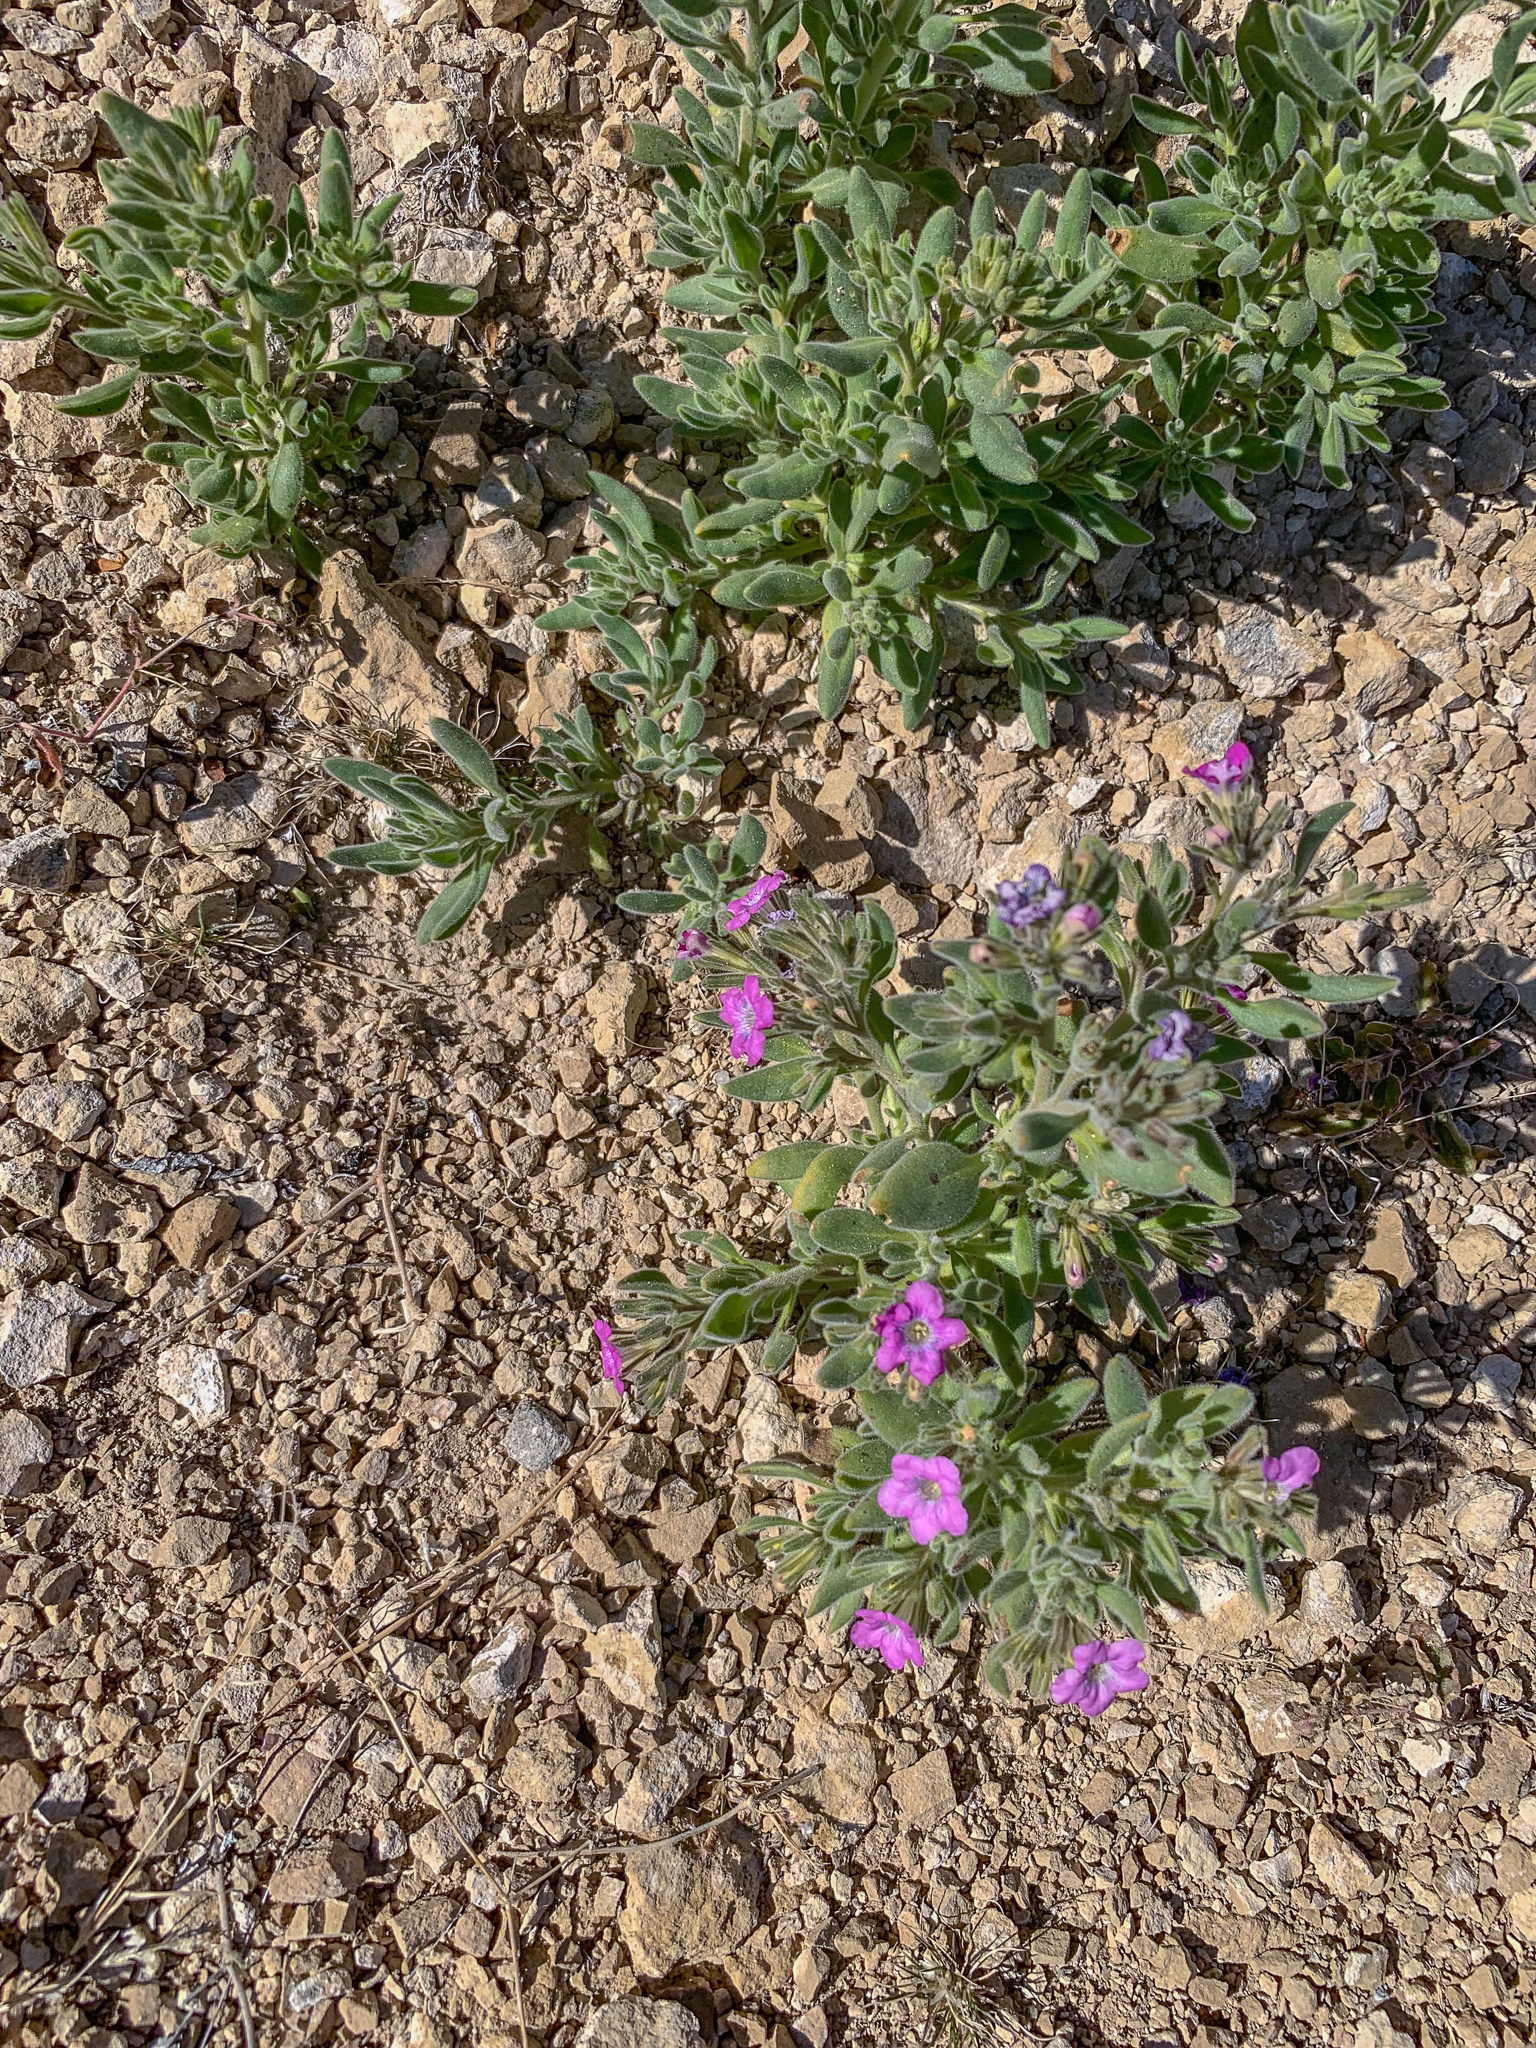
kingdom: Plantae
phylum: Tracheophyta
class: Magnoliopsida
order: Boraginales
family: Namaceae
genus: Nama
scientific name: Nama hispida
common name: Bristly nama
